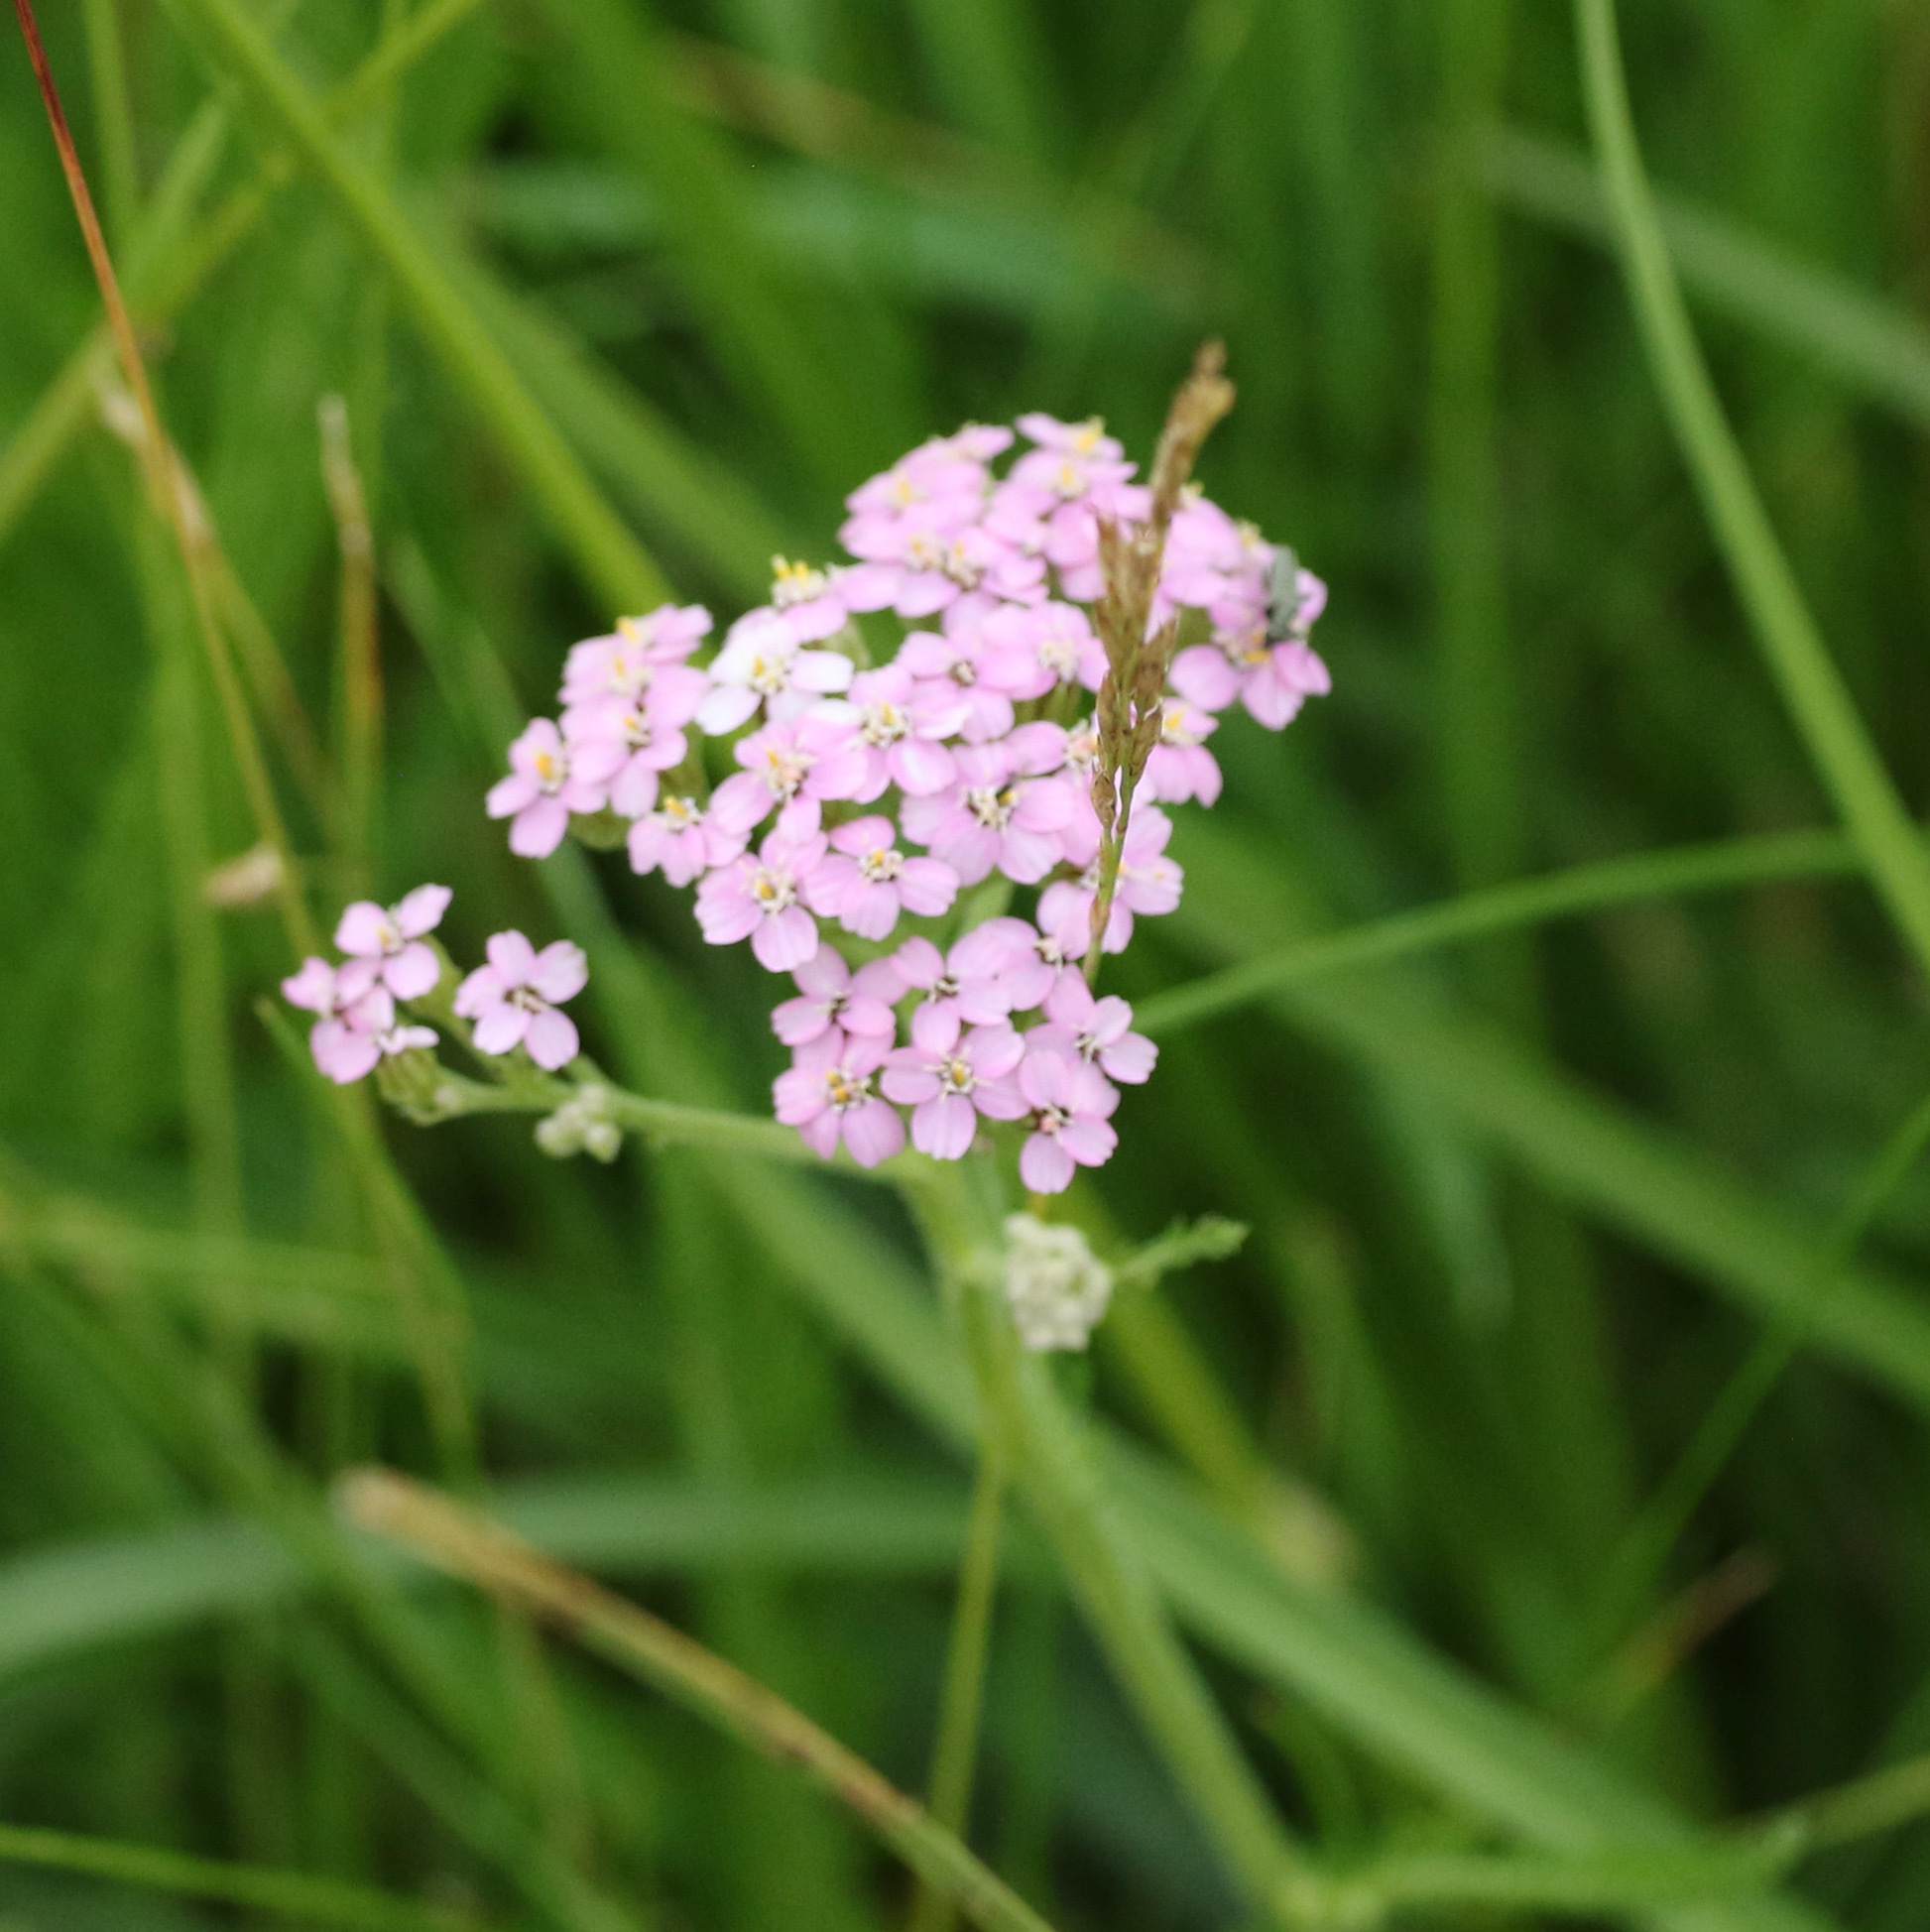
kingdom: Plantae
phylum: Tracheophyta
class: Magnoliopsida
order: Asterales
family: Asteraceae
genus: Achillea
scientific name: Achillea millefolium
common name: Yarrow
